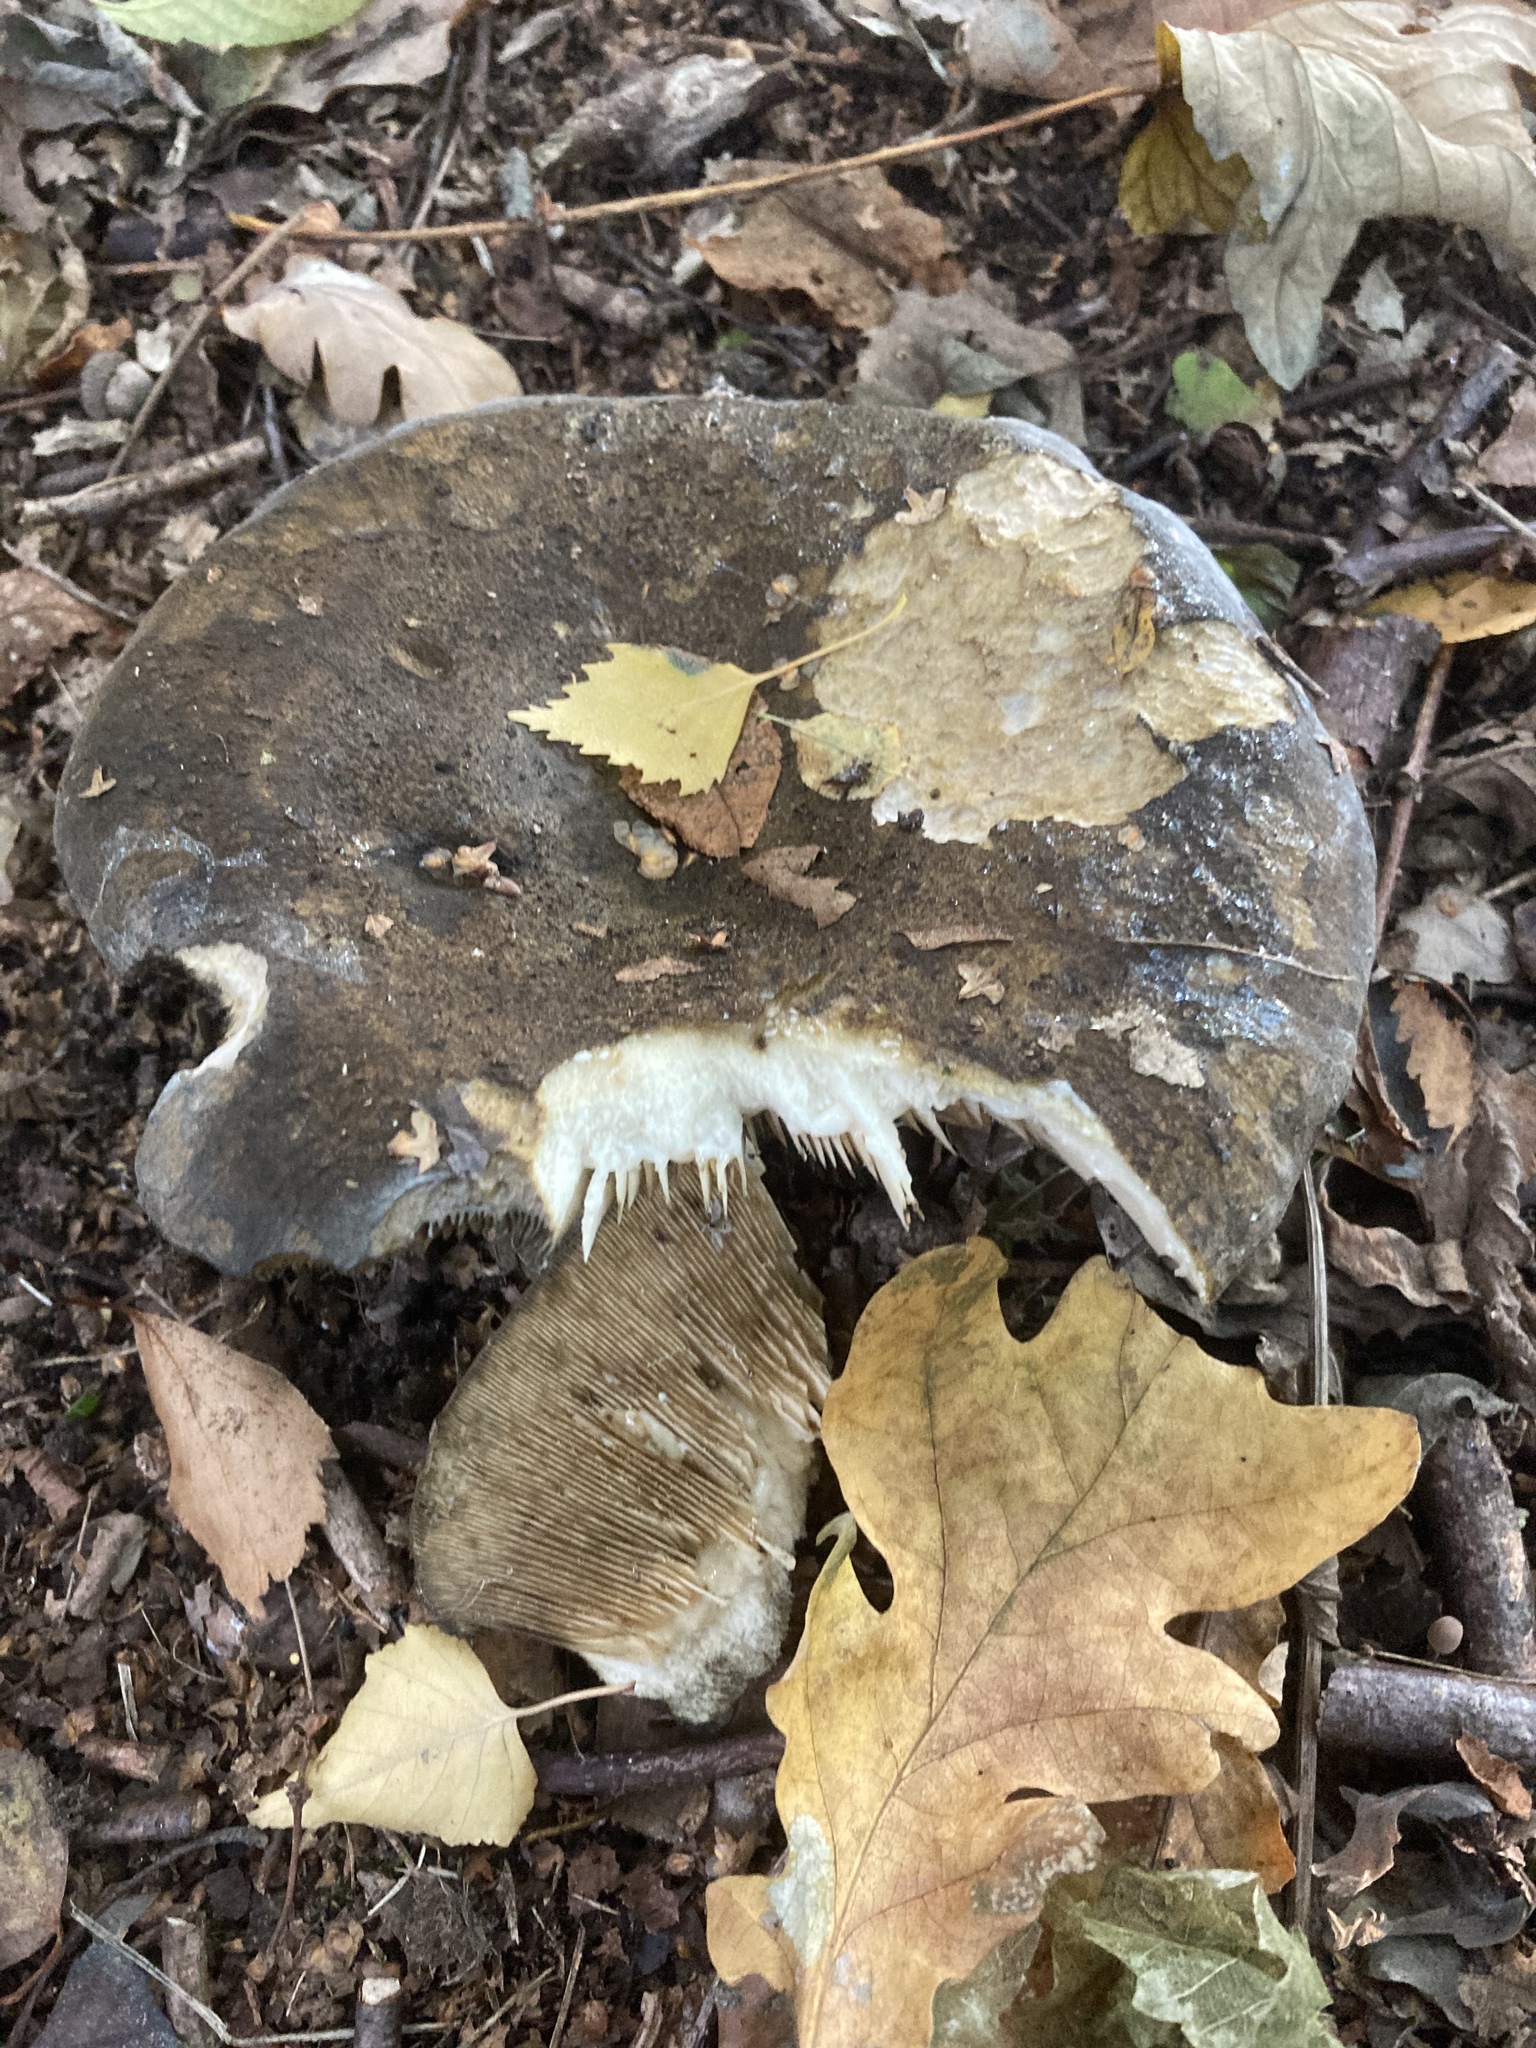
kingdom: Fungi
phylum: Basidiomycota
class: Agaricomycetes
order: Russulales
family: Russulaceae
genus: Lactarius
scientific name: Lactarius turpis
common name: Ugly milk-cap
